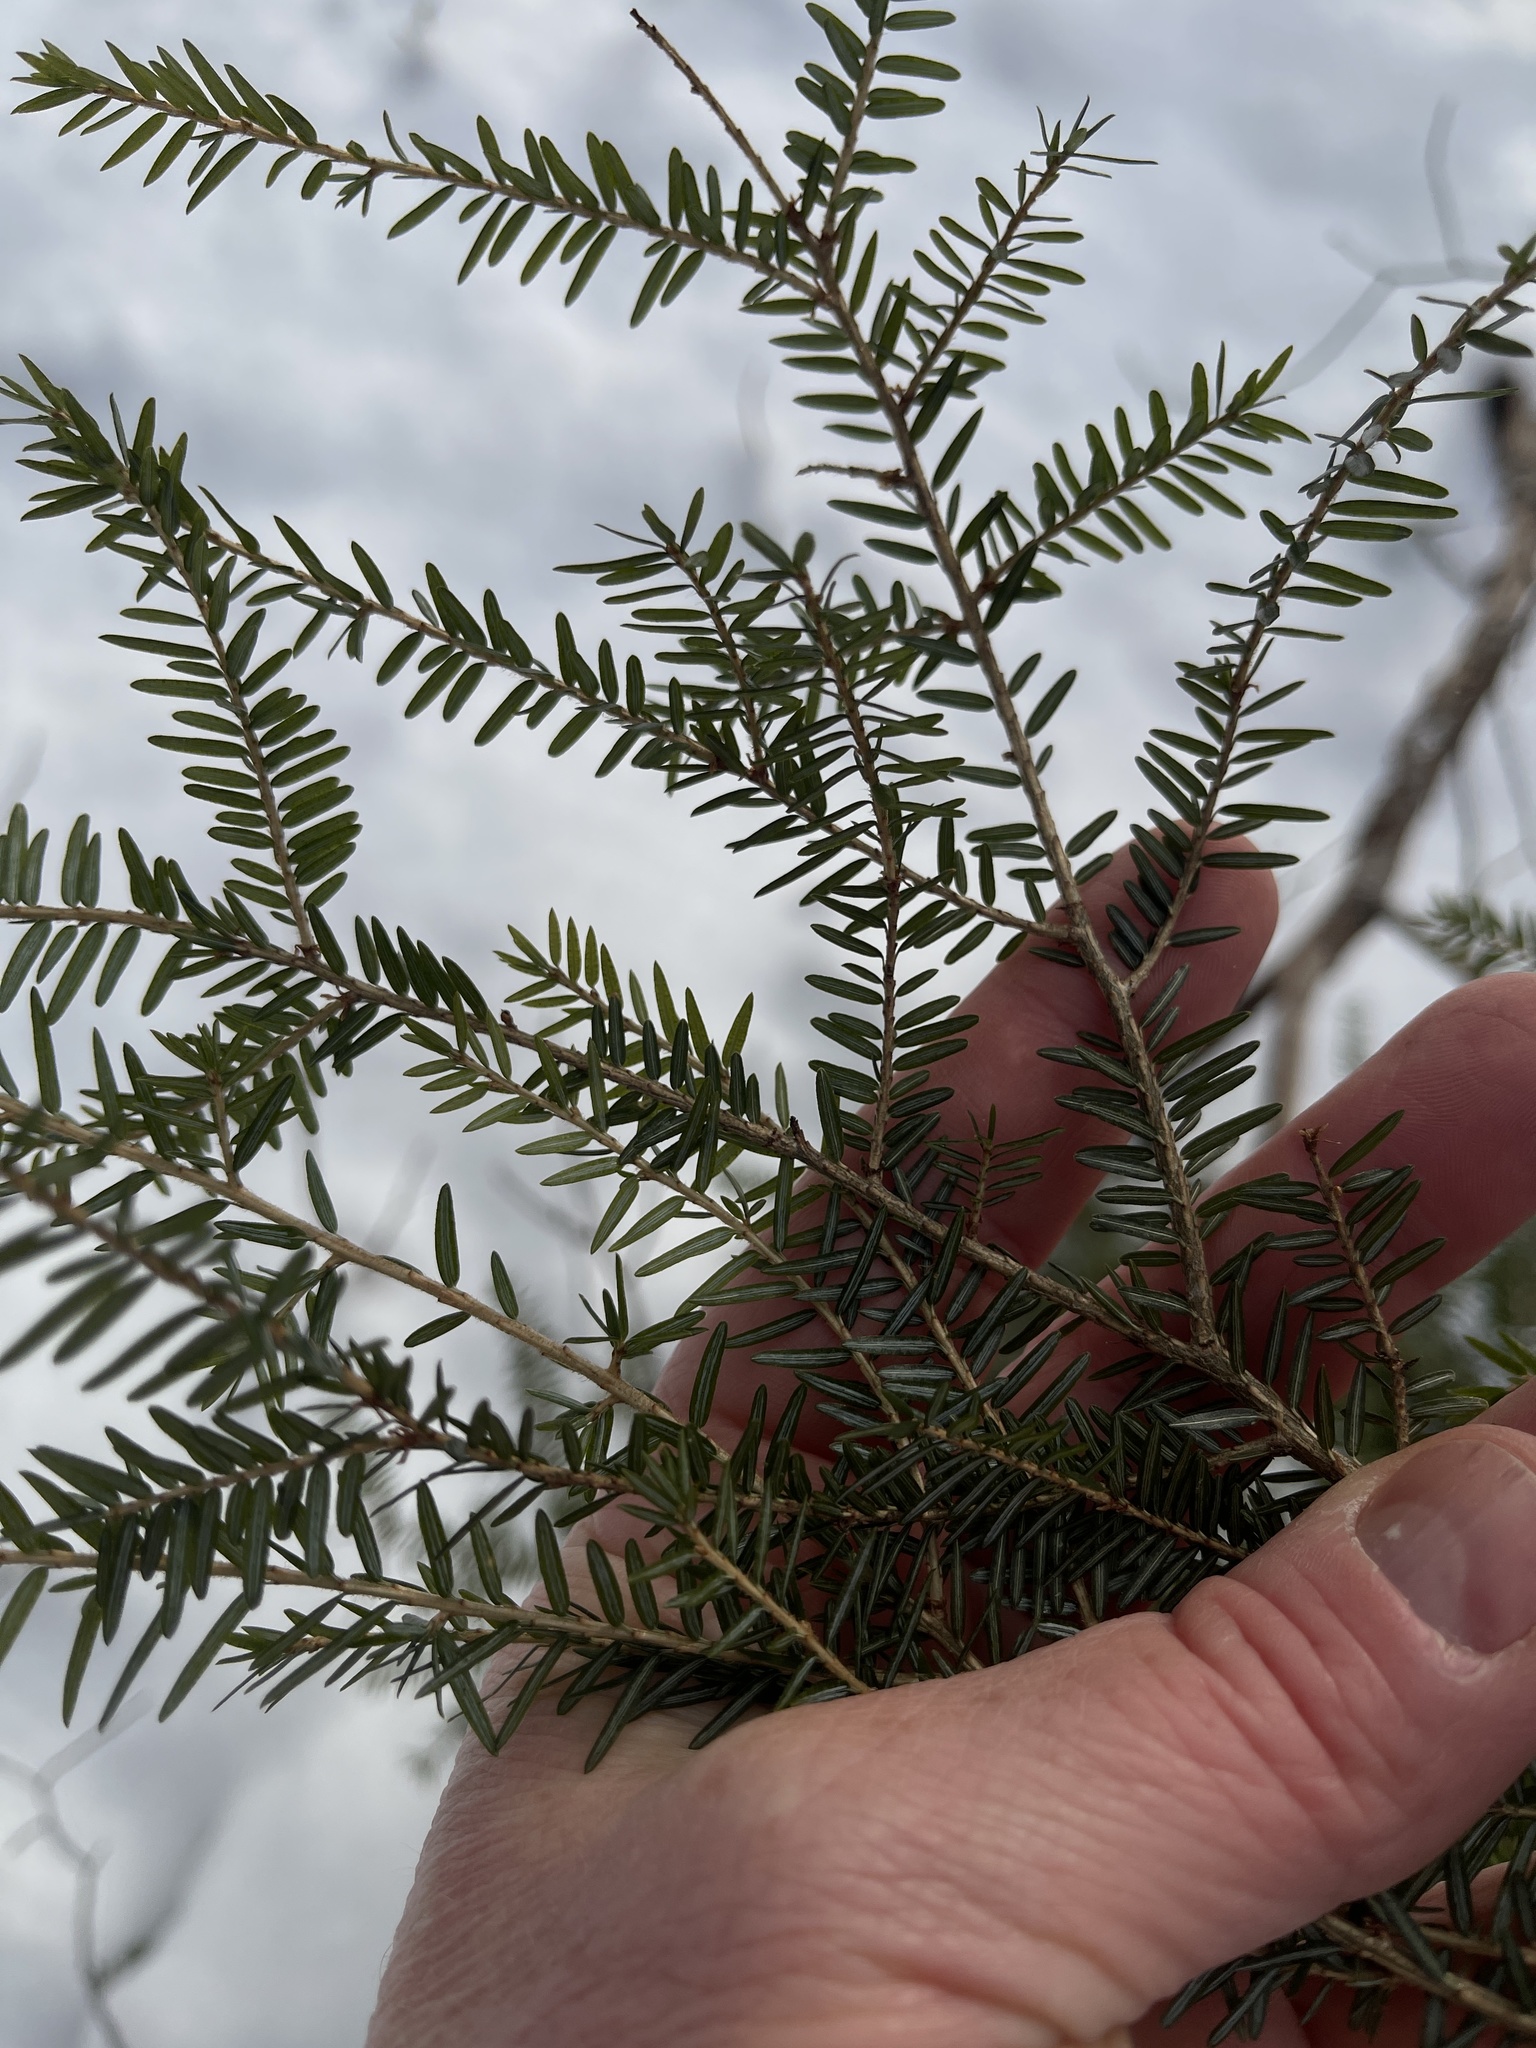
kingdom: Plantae
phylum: Tracheophyta
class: Pinopsida
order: Pinales
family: Pinaceae
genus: Tsuga
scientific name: Tsuga canadensis
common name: Eastern hemlock
